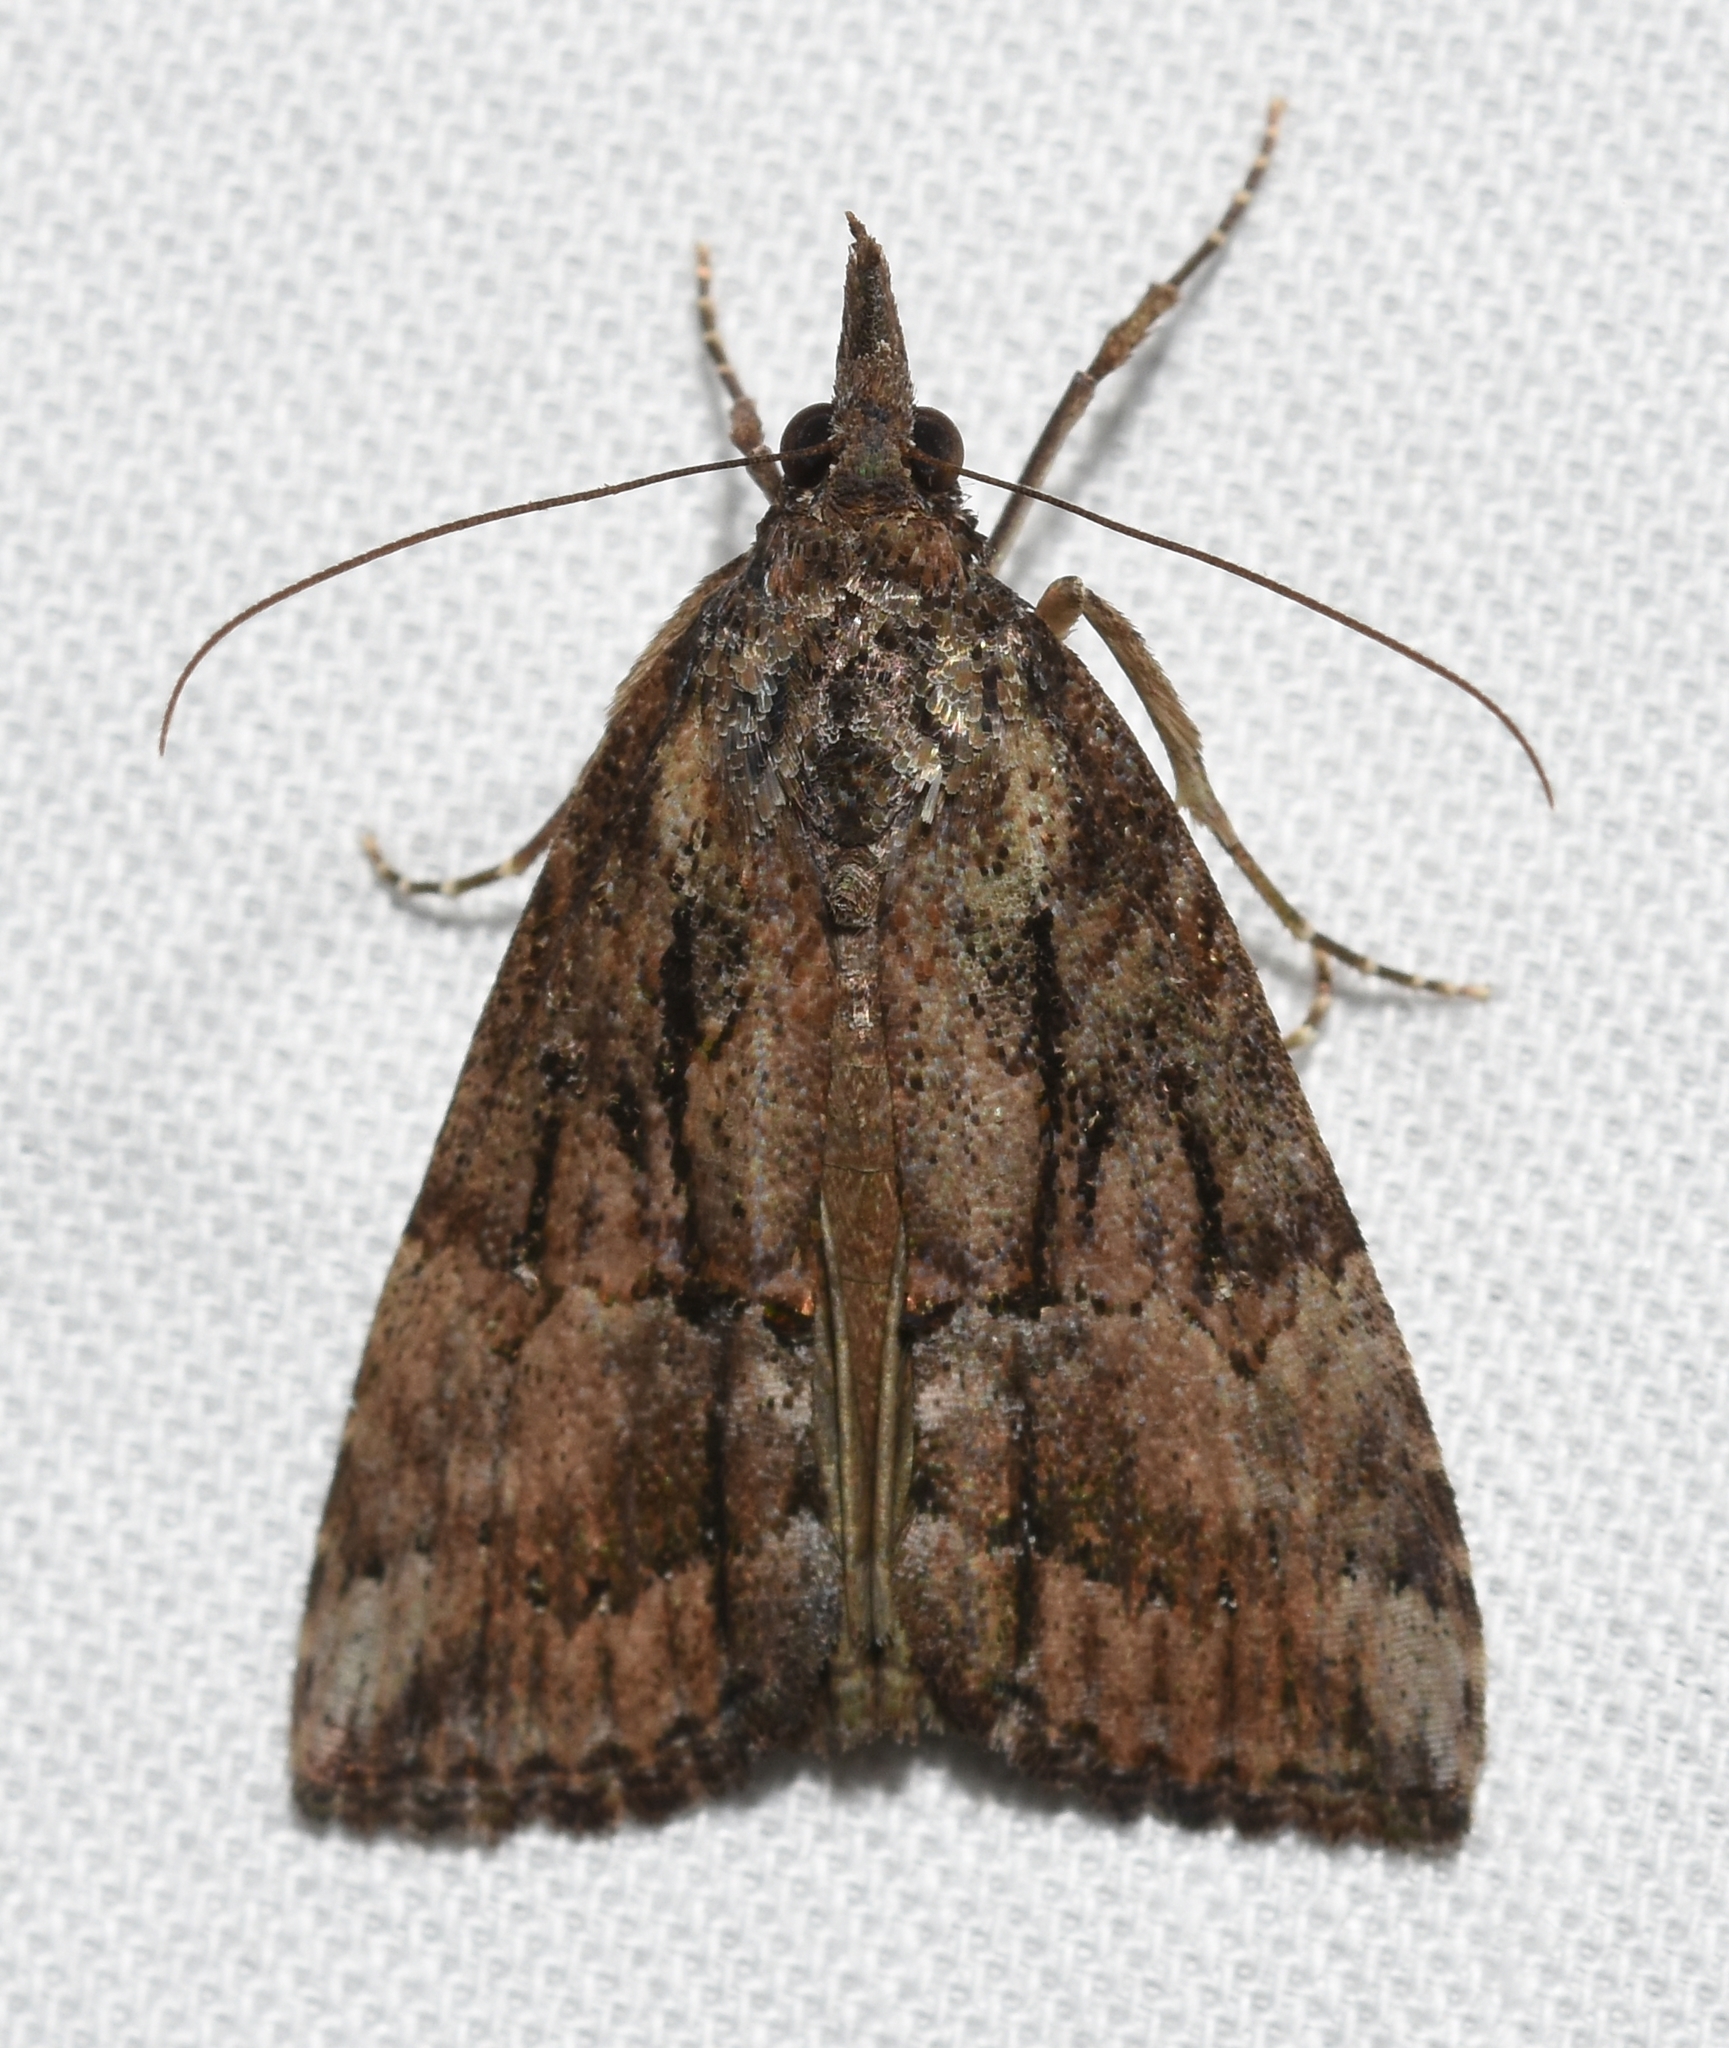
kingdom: Animalia
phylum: Arthropoda
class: Insecta
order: Lepidoptera
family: Erebidae
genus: Hypena
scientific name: Hypena scabra
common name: Green cloverworm
